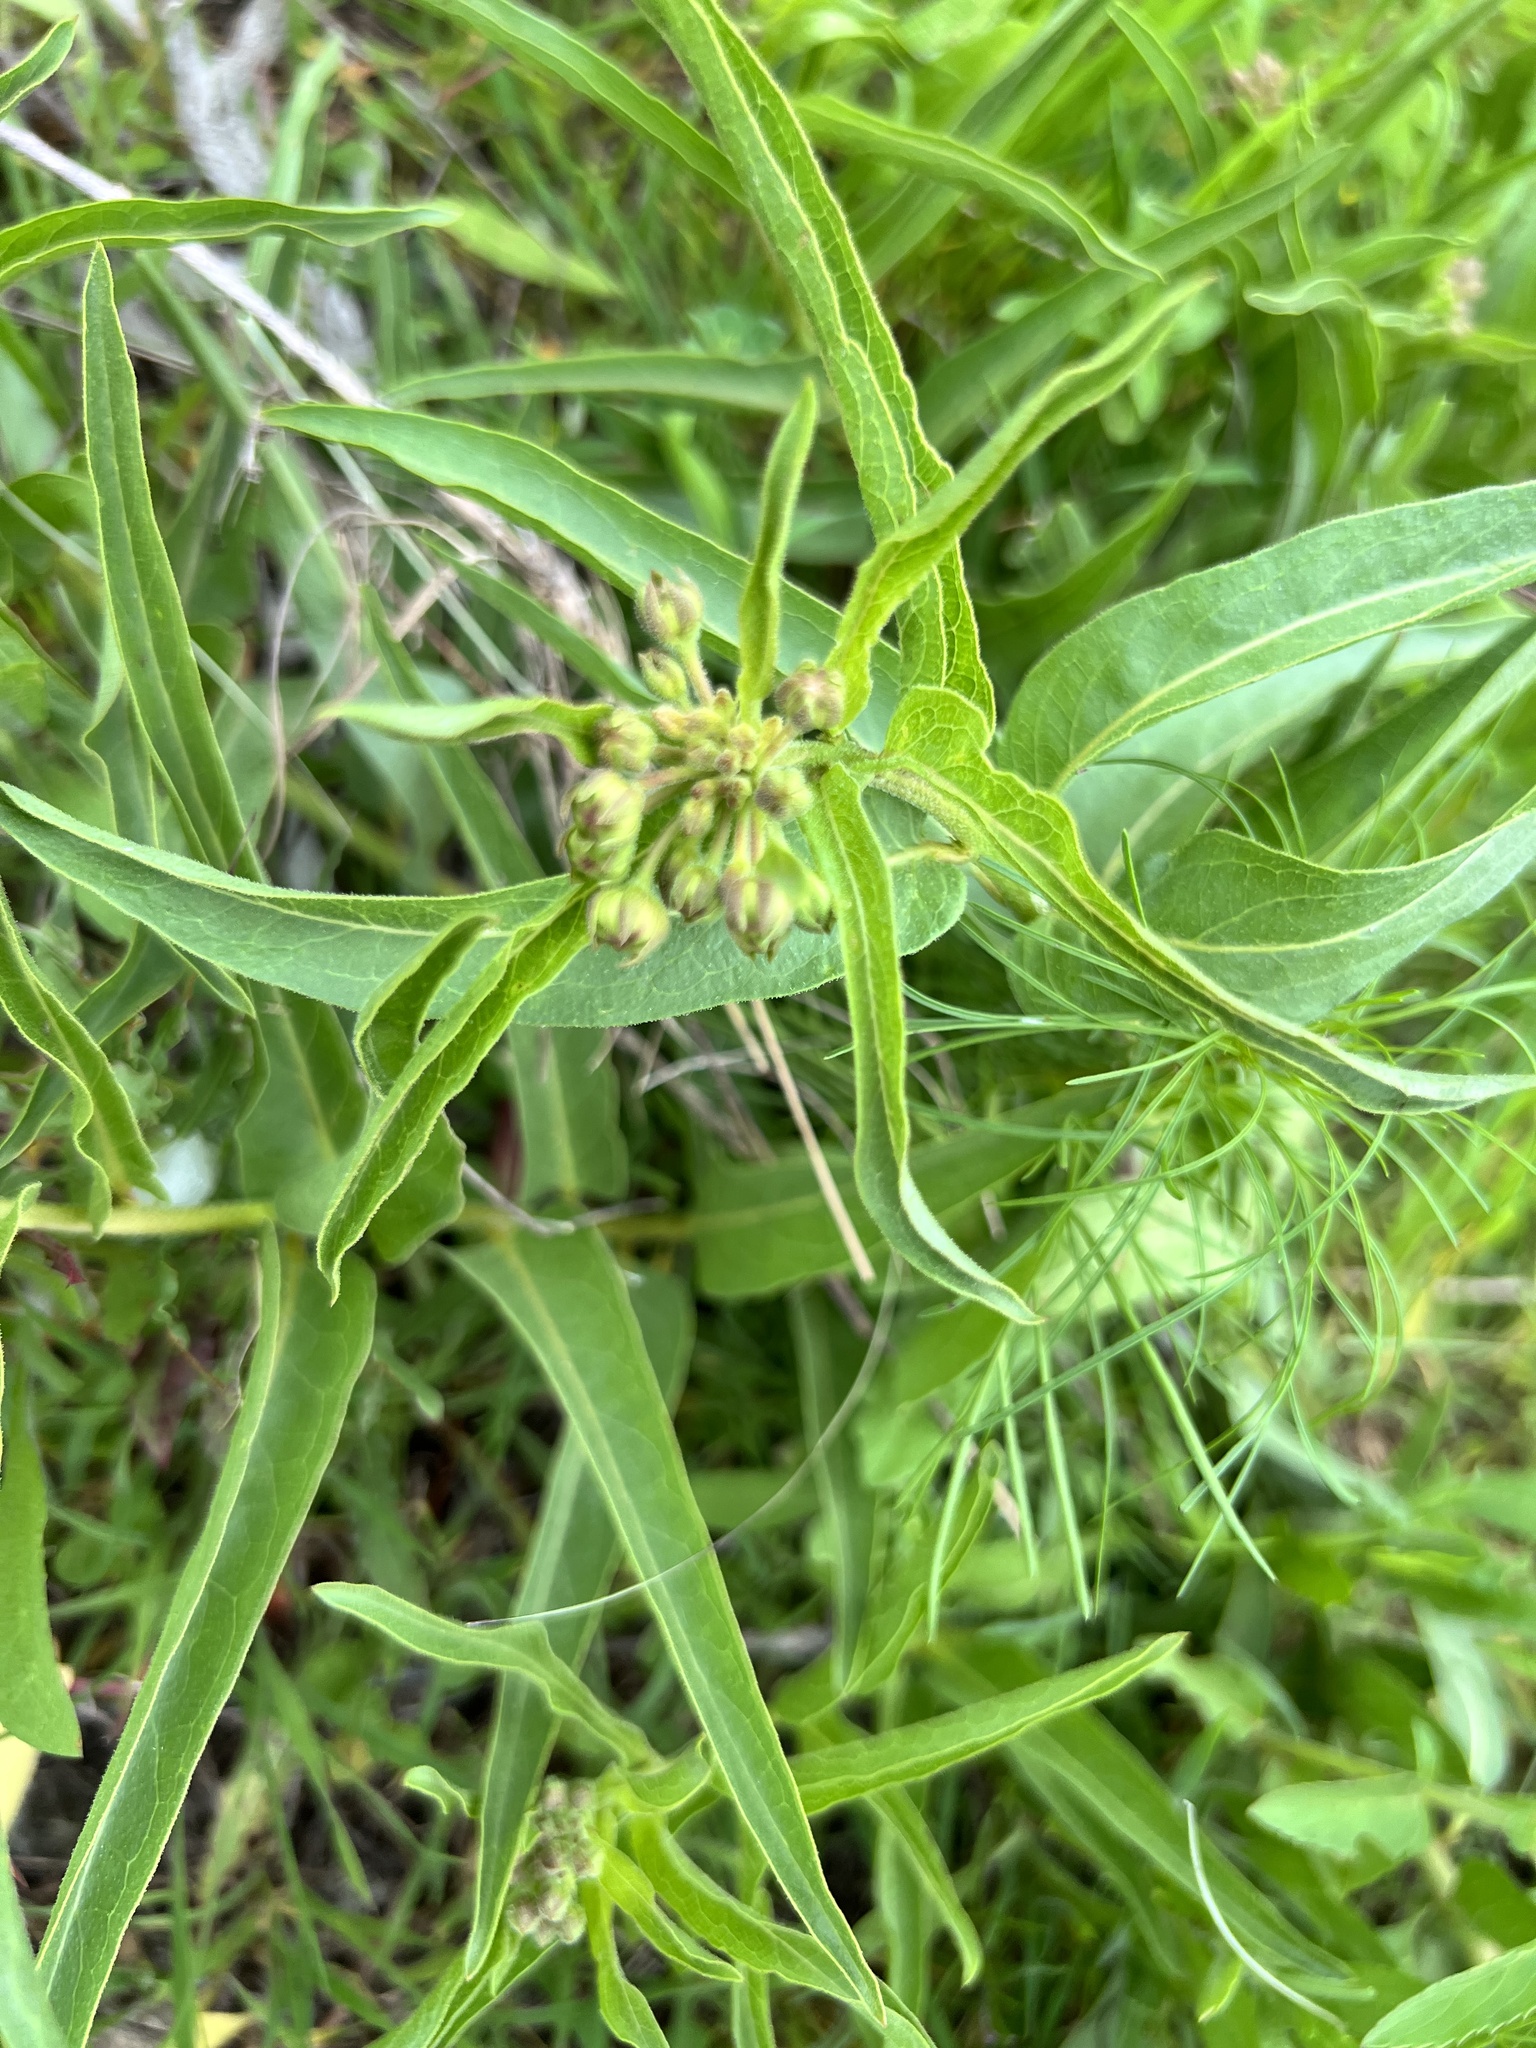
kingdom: Plantae
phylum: Tracheophyta
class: Magnoliopsida
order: Gentianales
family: Apocynaceae
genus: Asclepias
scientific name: Asclepias asperula
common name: Antelope horns
